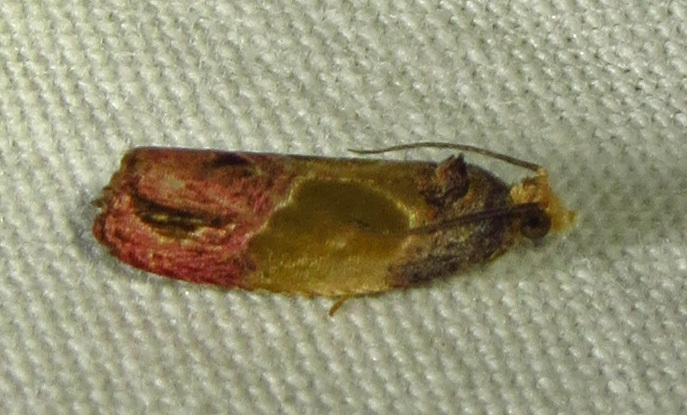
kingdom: Animalia
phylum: Arthropoda
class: Insecta
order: Lepidoptera
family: Tortricidae
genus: Eumarozia
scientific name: Eumarozia malachitana
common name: Sculptured moth
